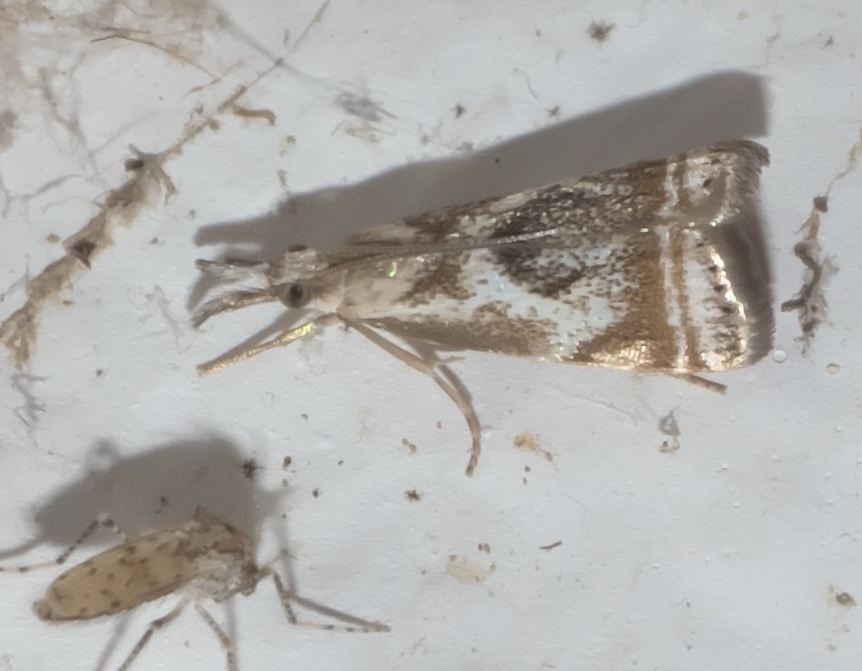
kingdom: Animalia
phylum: Arthropoda
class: Insecta
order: Lepidoptera
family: Crambidae
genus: Microcrambus
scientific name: Microcrambus elegans
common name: Elegant grass-veneer
